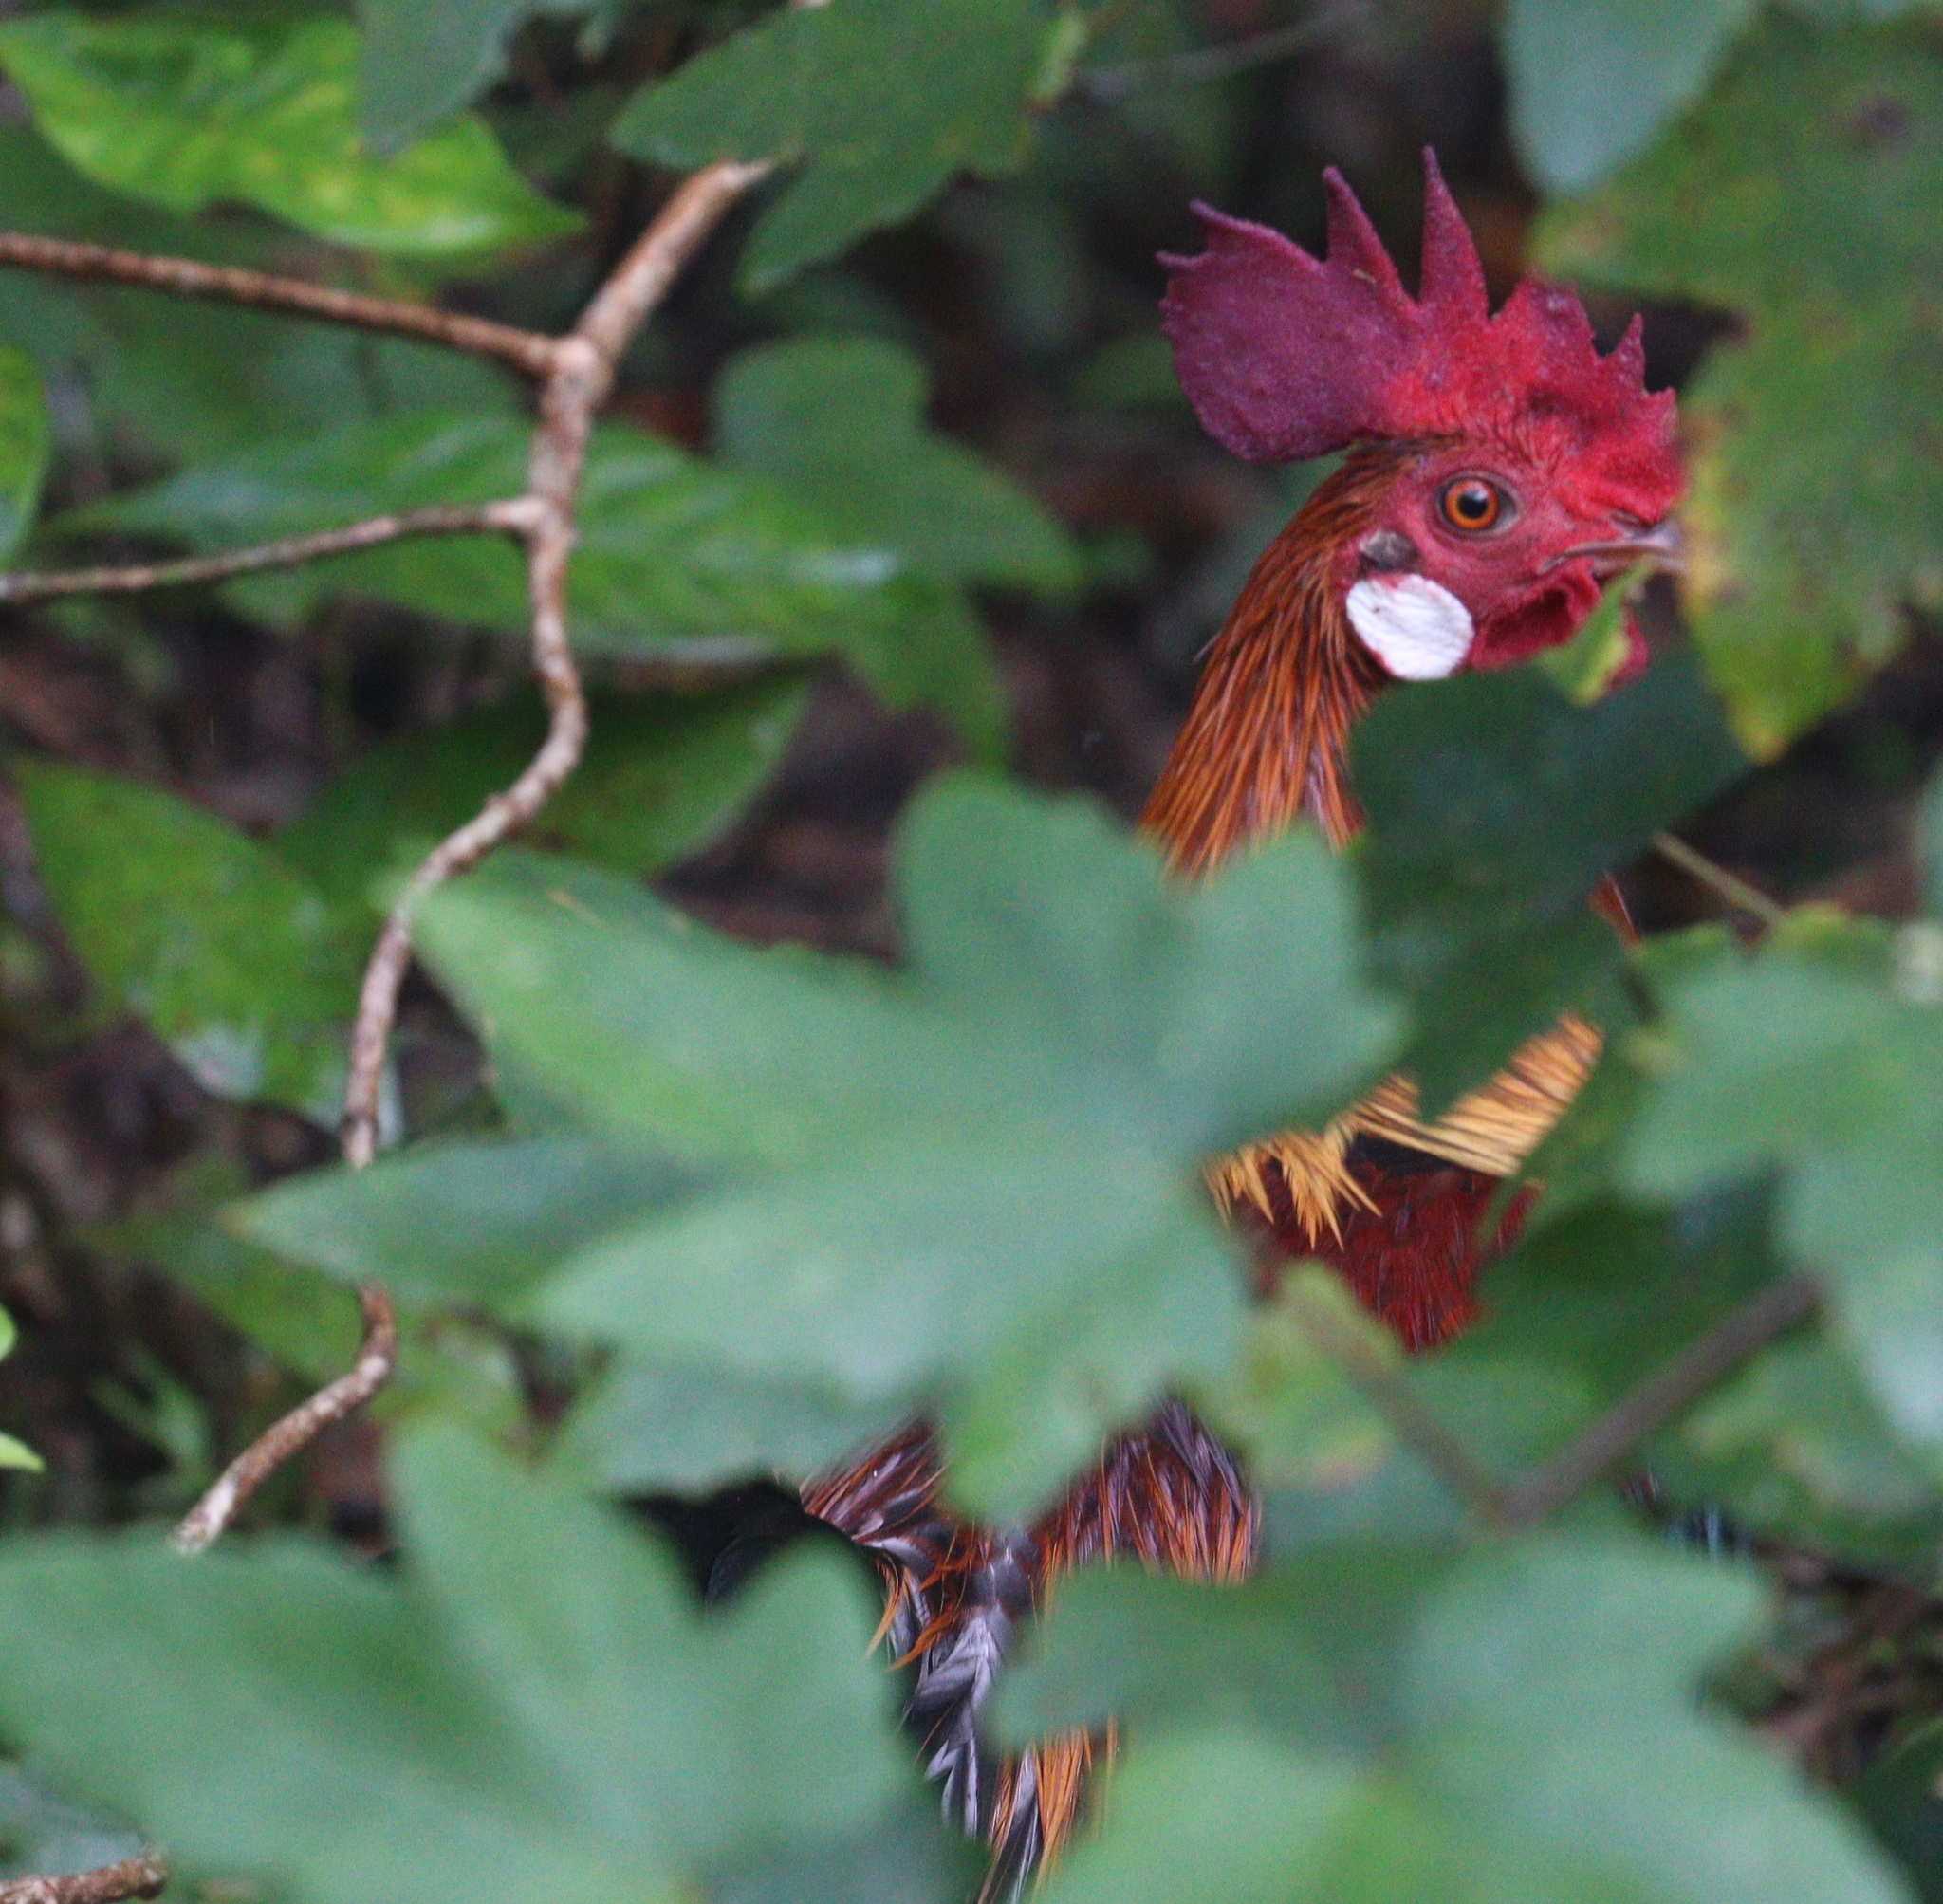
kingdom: Animalia
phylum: Chordata
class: Aves
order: Galliformes
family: Phasianidae
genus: Gallus
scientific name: Gallus gallus
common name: Red junglefowl
